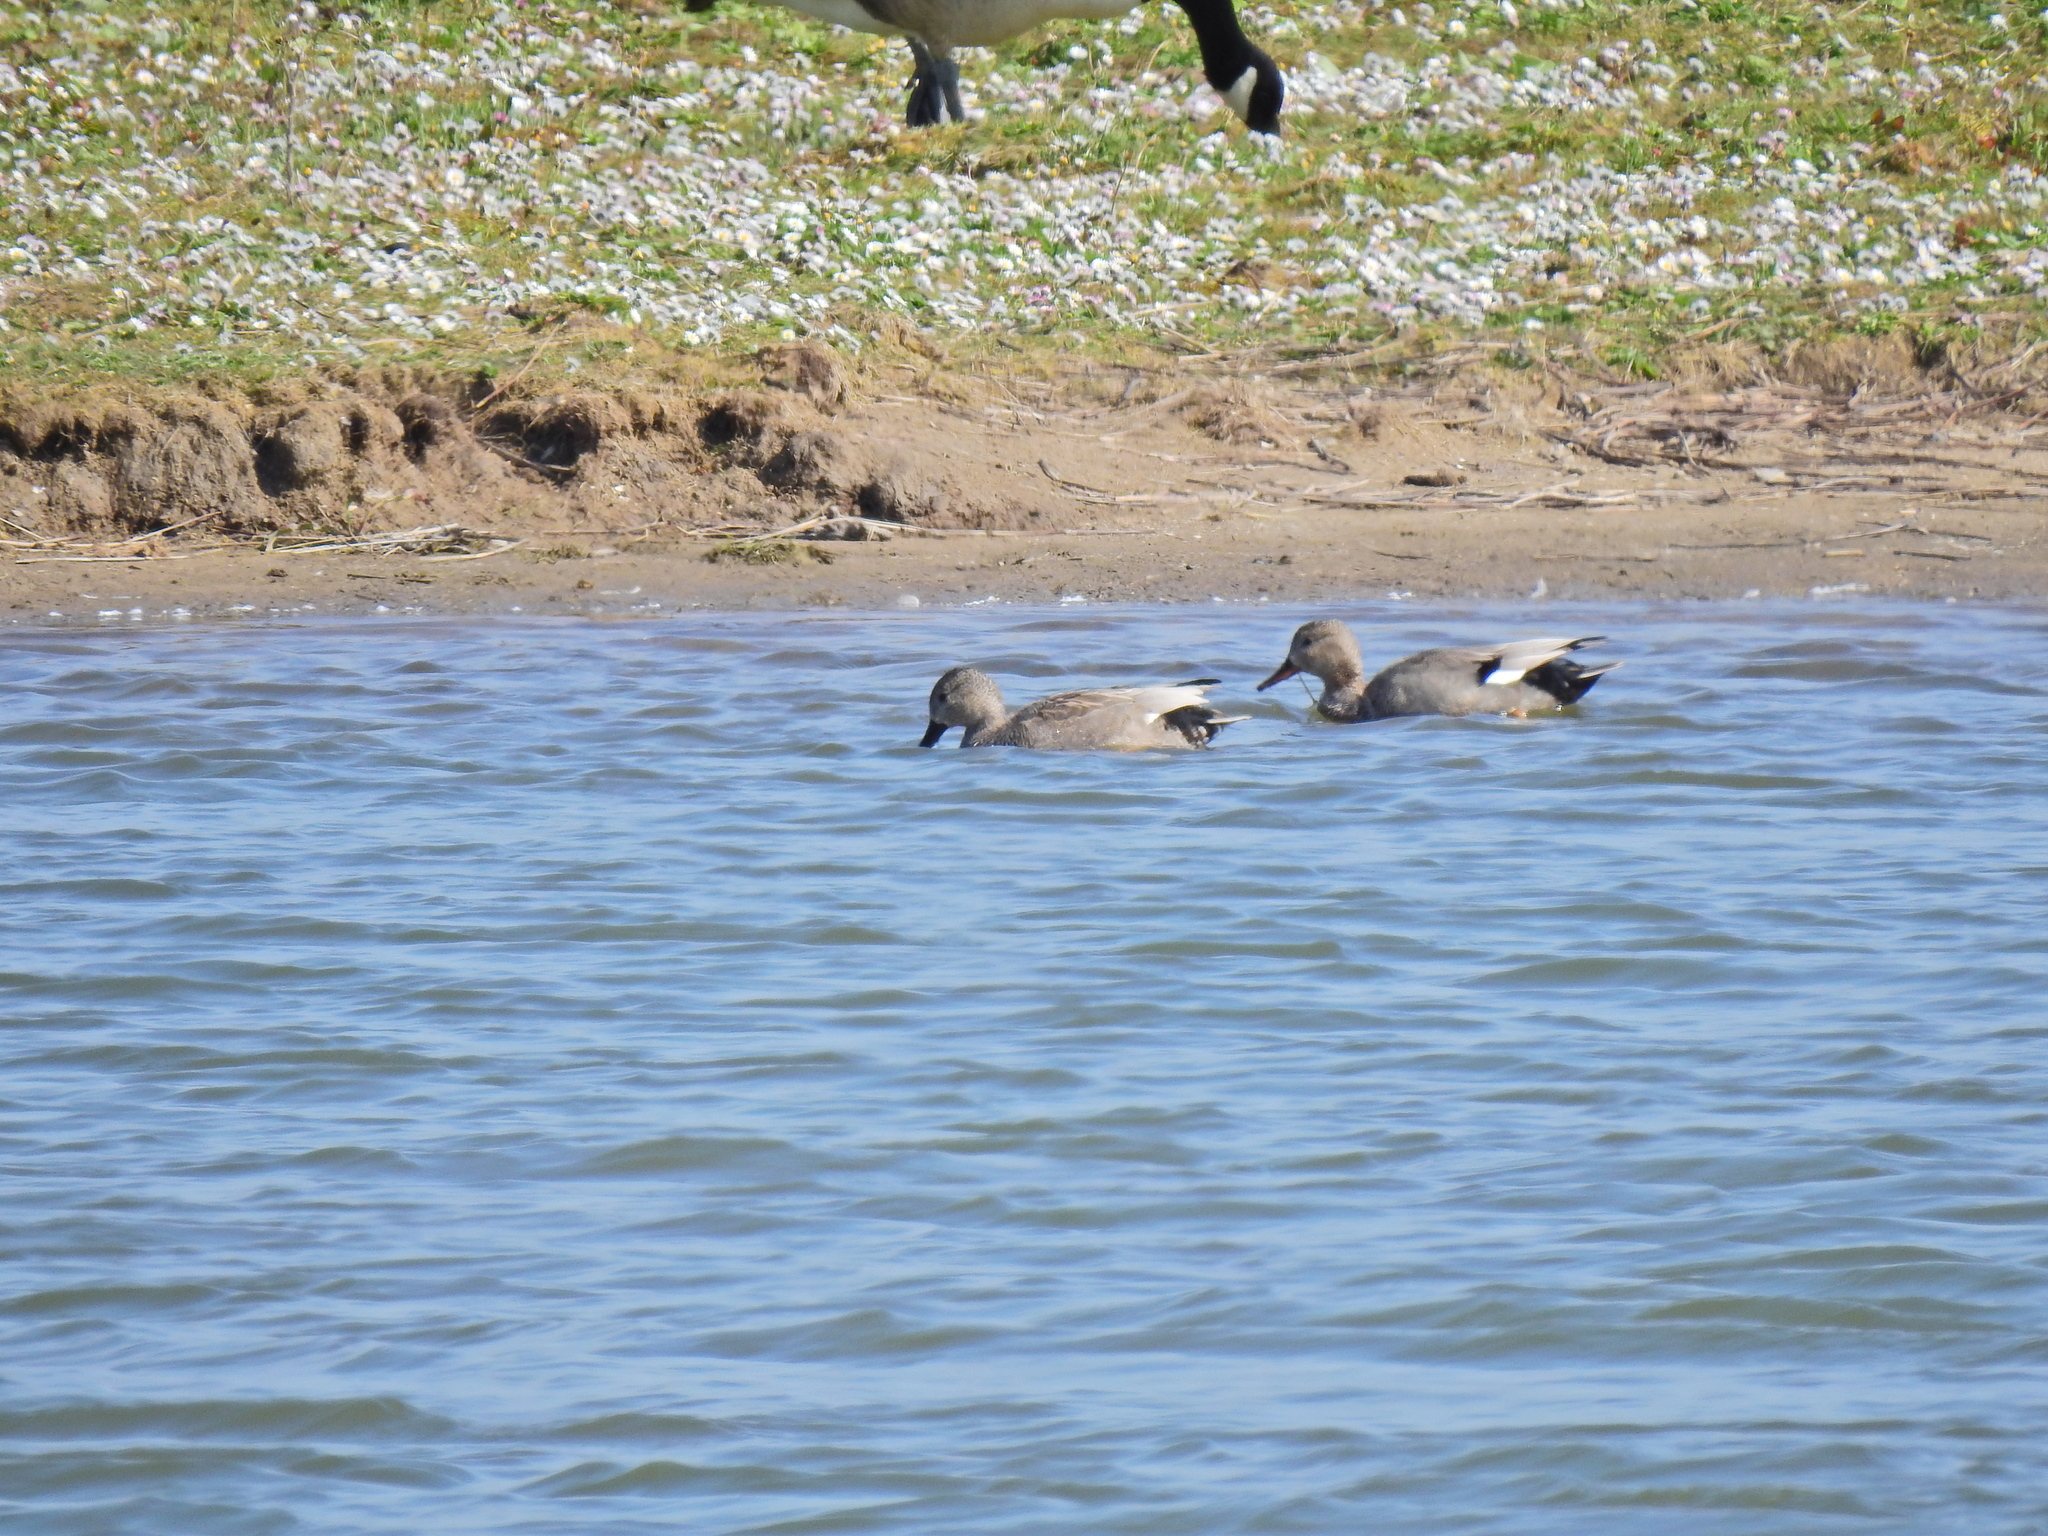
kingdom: Animalia
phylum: Chordata
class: Aves
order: Anseriformes
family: Anatidae
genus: Mareca
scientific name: Mareca strepera
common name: Gadwall
